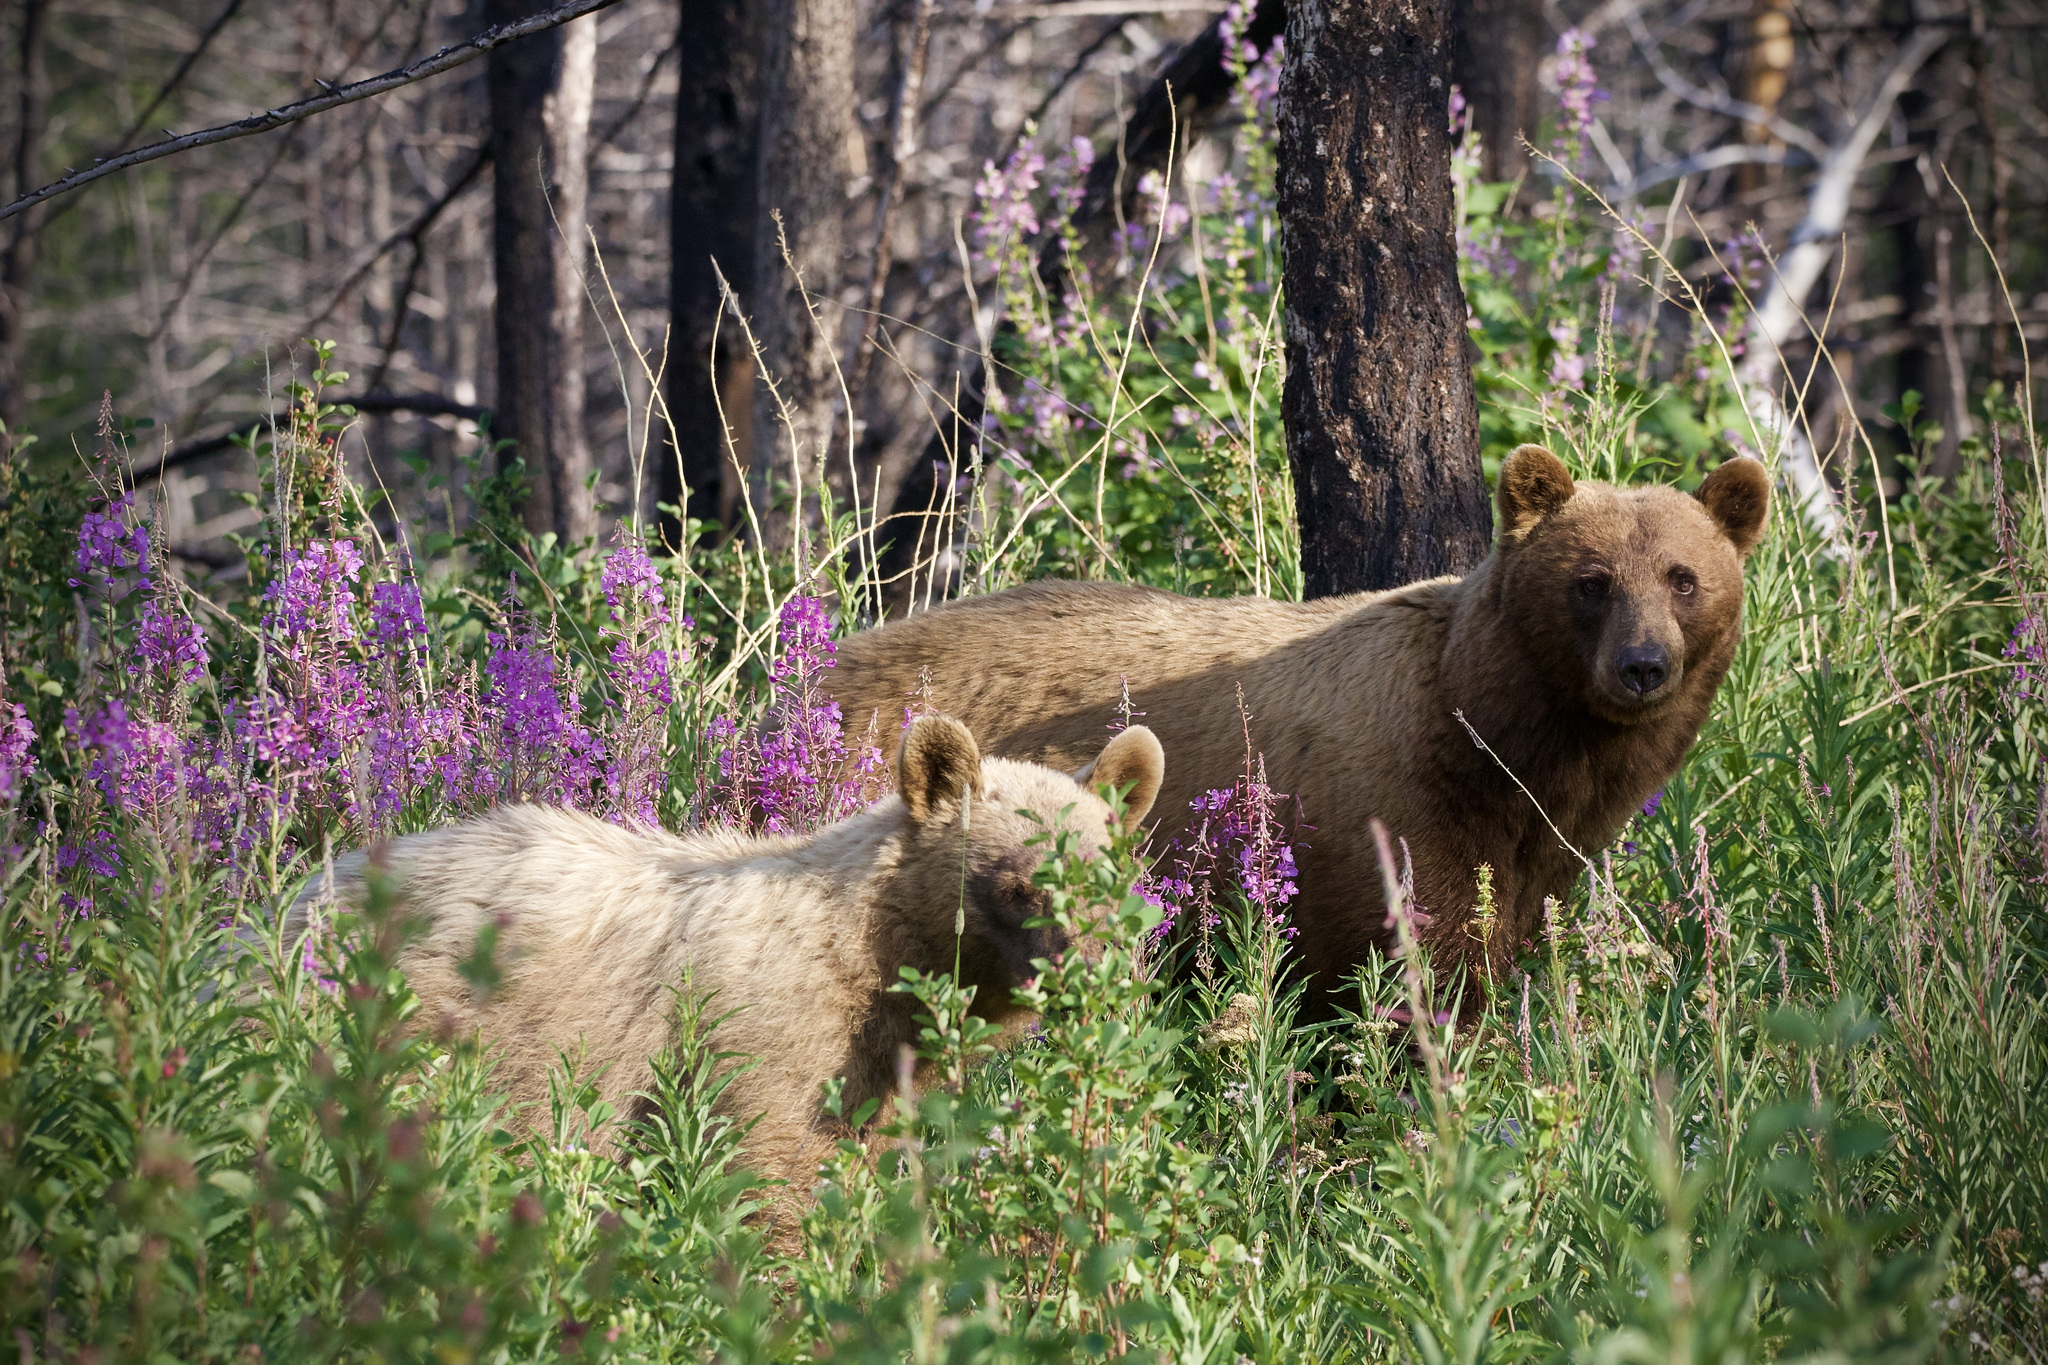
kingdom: Animalia
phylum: Chordata
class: Mammalia
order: Carnivora
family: Ursidae
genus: Ursus
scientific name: Ursus americanus
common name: American black bear
